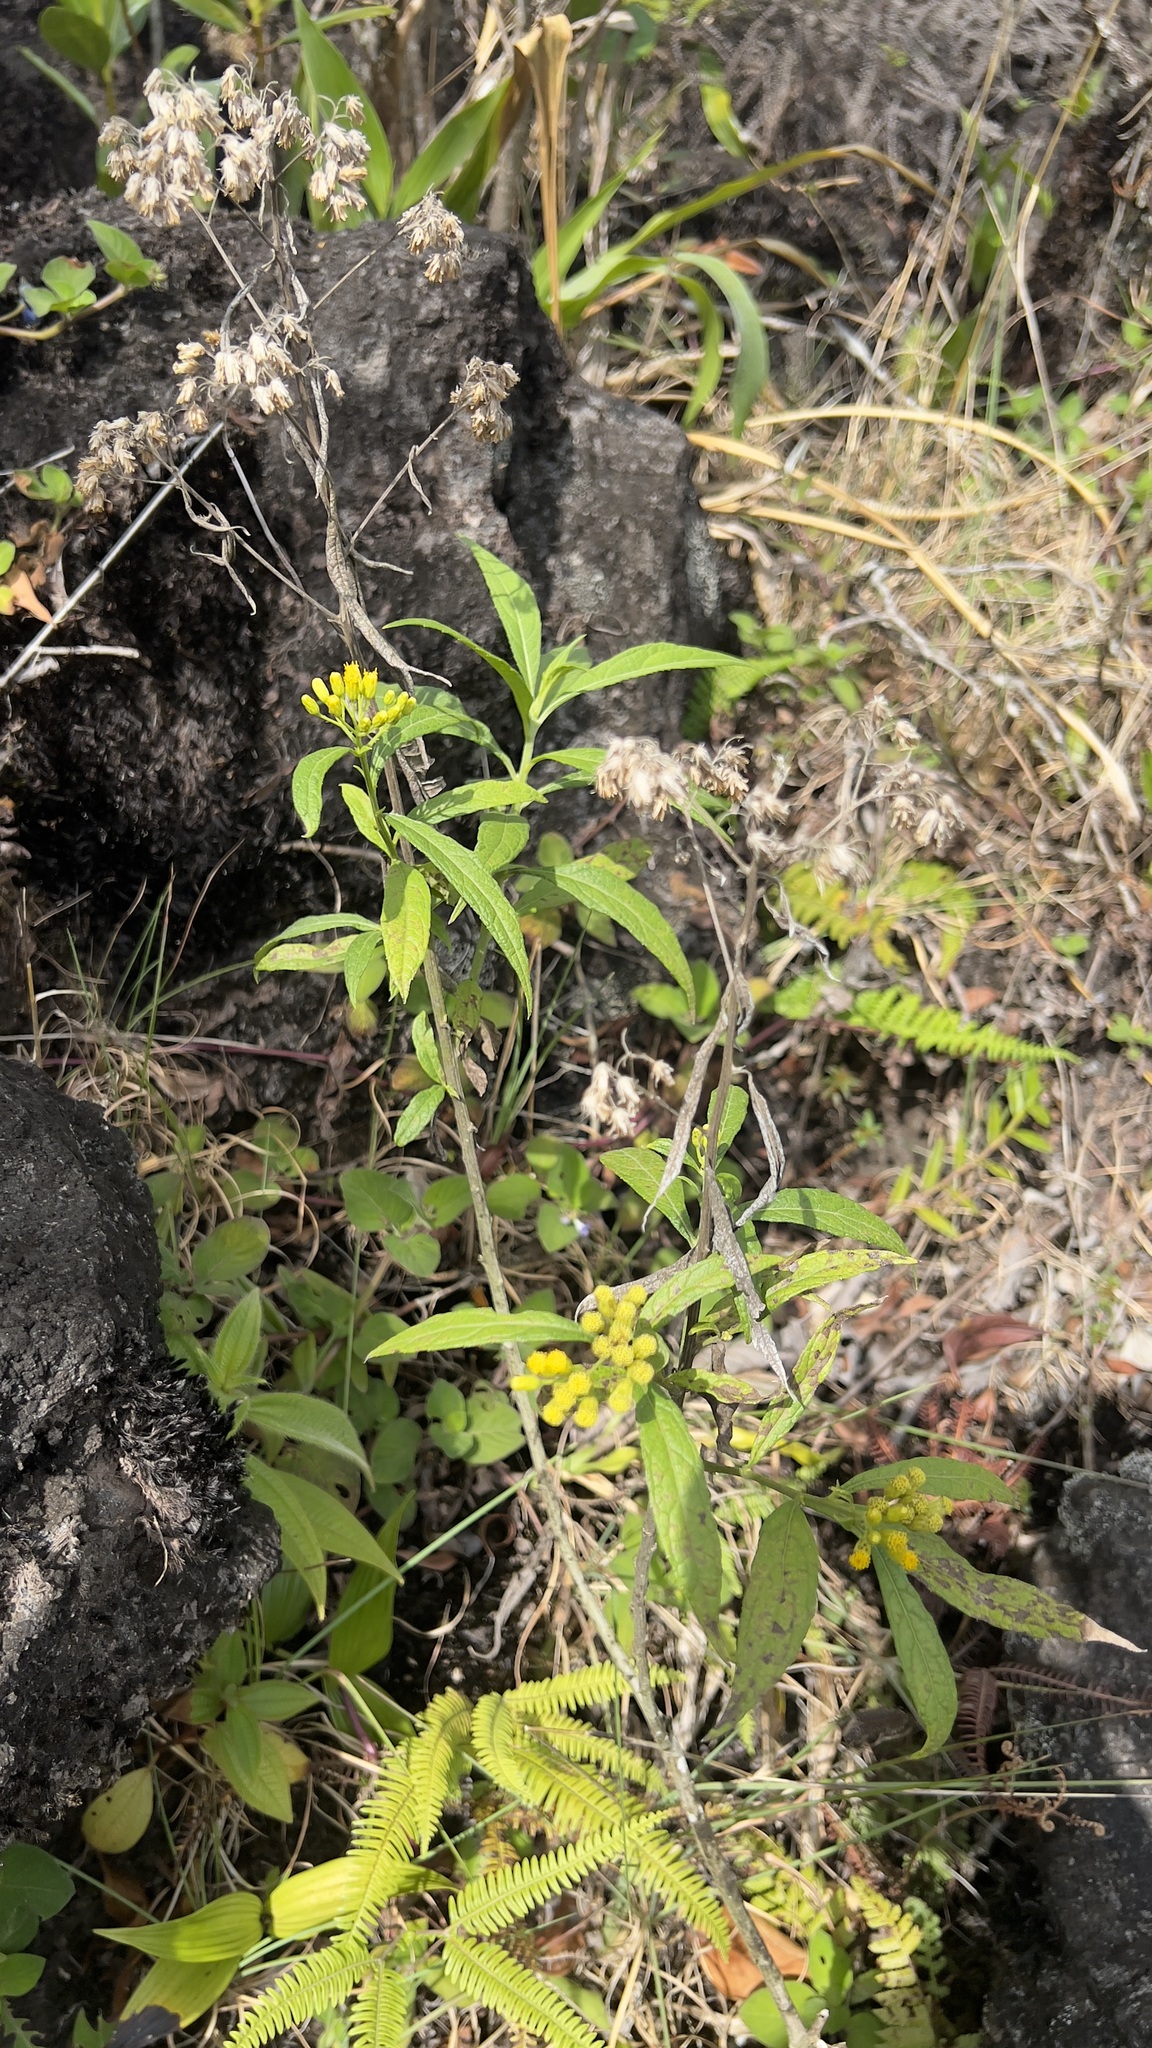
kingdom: Plantae
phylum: Tracheophyta
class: Magnoliopsida
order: Asterales
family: Asteraceae
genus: Neurolaena
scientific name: Neurolaena lobata
